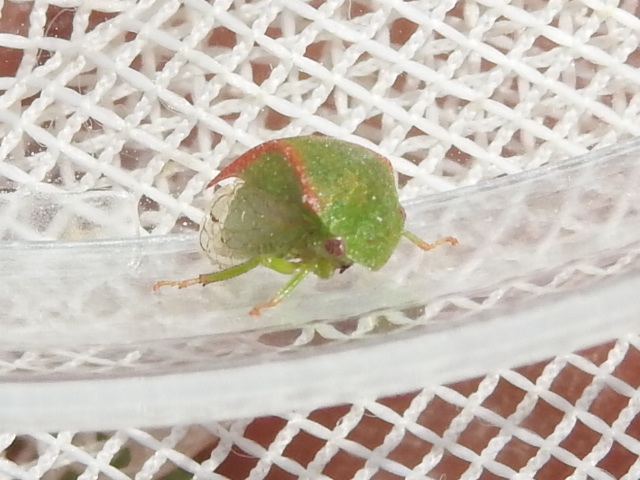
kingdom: Animalia
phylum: Arthropoda
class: Insecta
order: Hemiptera
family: Membracidae
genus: Spissistilus
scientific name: Spissistilus festina
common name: Membracid bug
